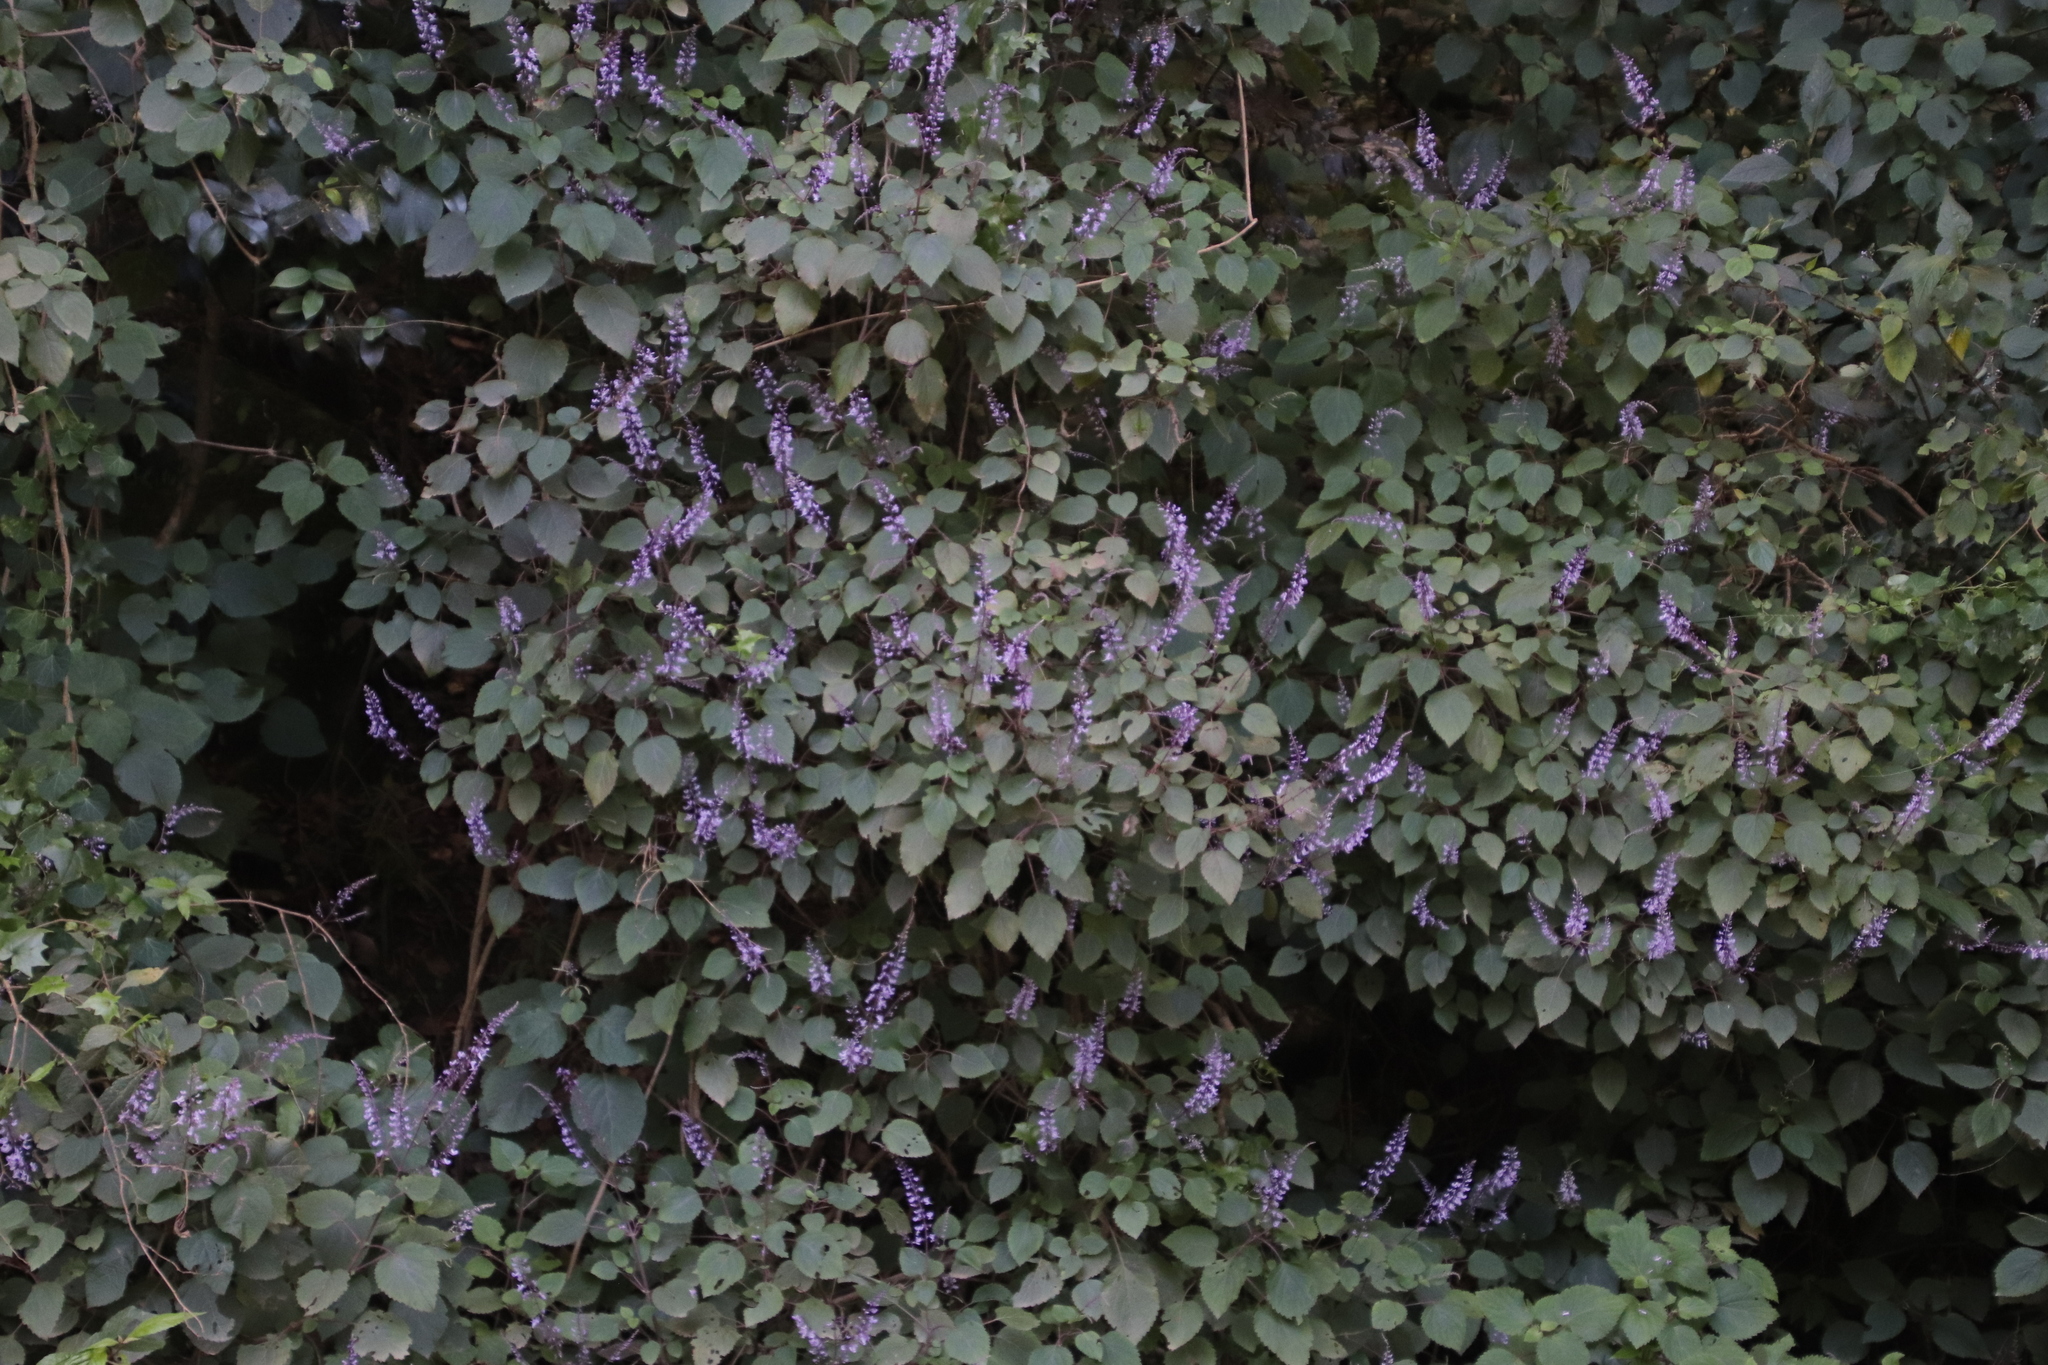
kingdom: Plantae
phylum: Tracheophyta
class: Magnoliopsida
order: Lamiales
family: Lamiaceae
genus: Plectranthus
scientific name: Plectranthus fruticosus
